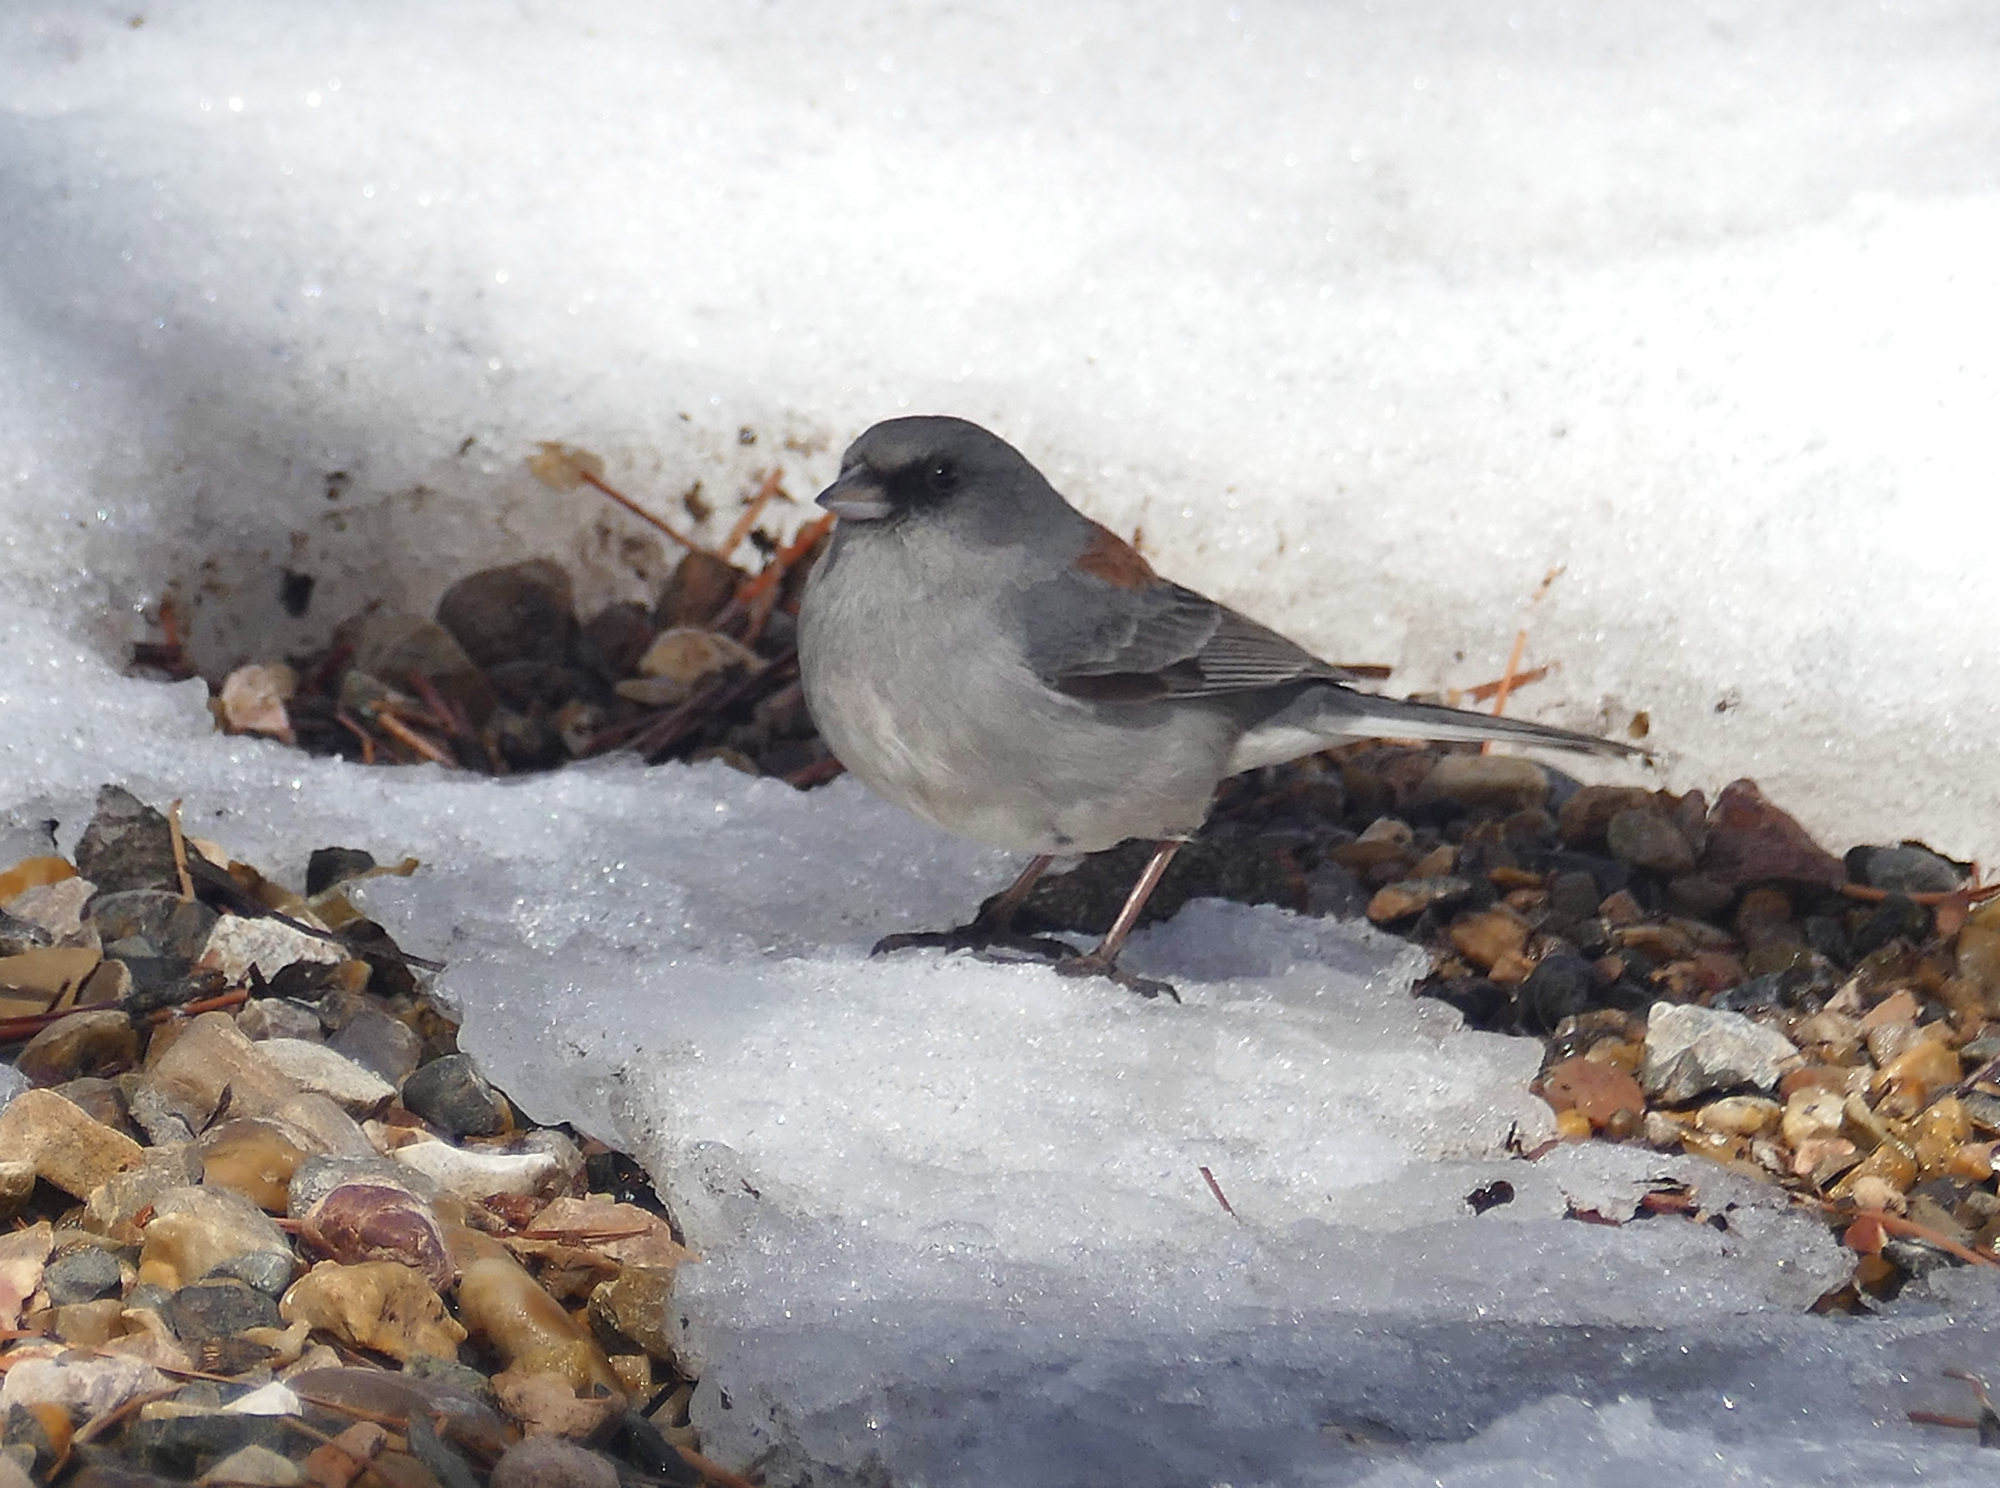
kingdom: Animalia
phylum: Chordata
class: Aves
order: Passeriformes
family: Passerellidae
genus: Junco
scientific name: Junco hyemalis
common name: Dark-eyed junco
